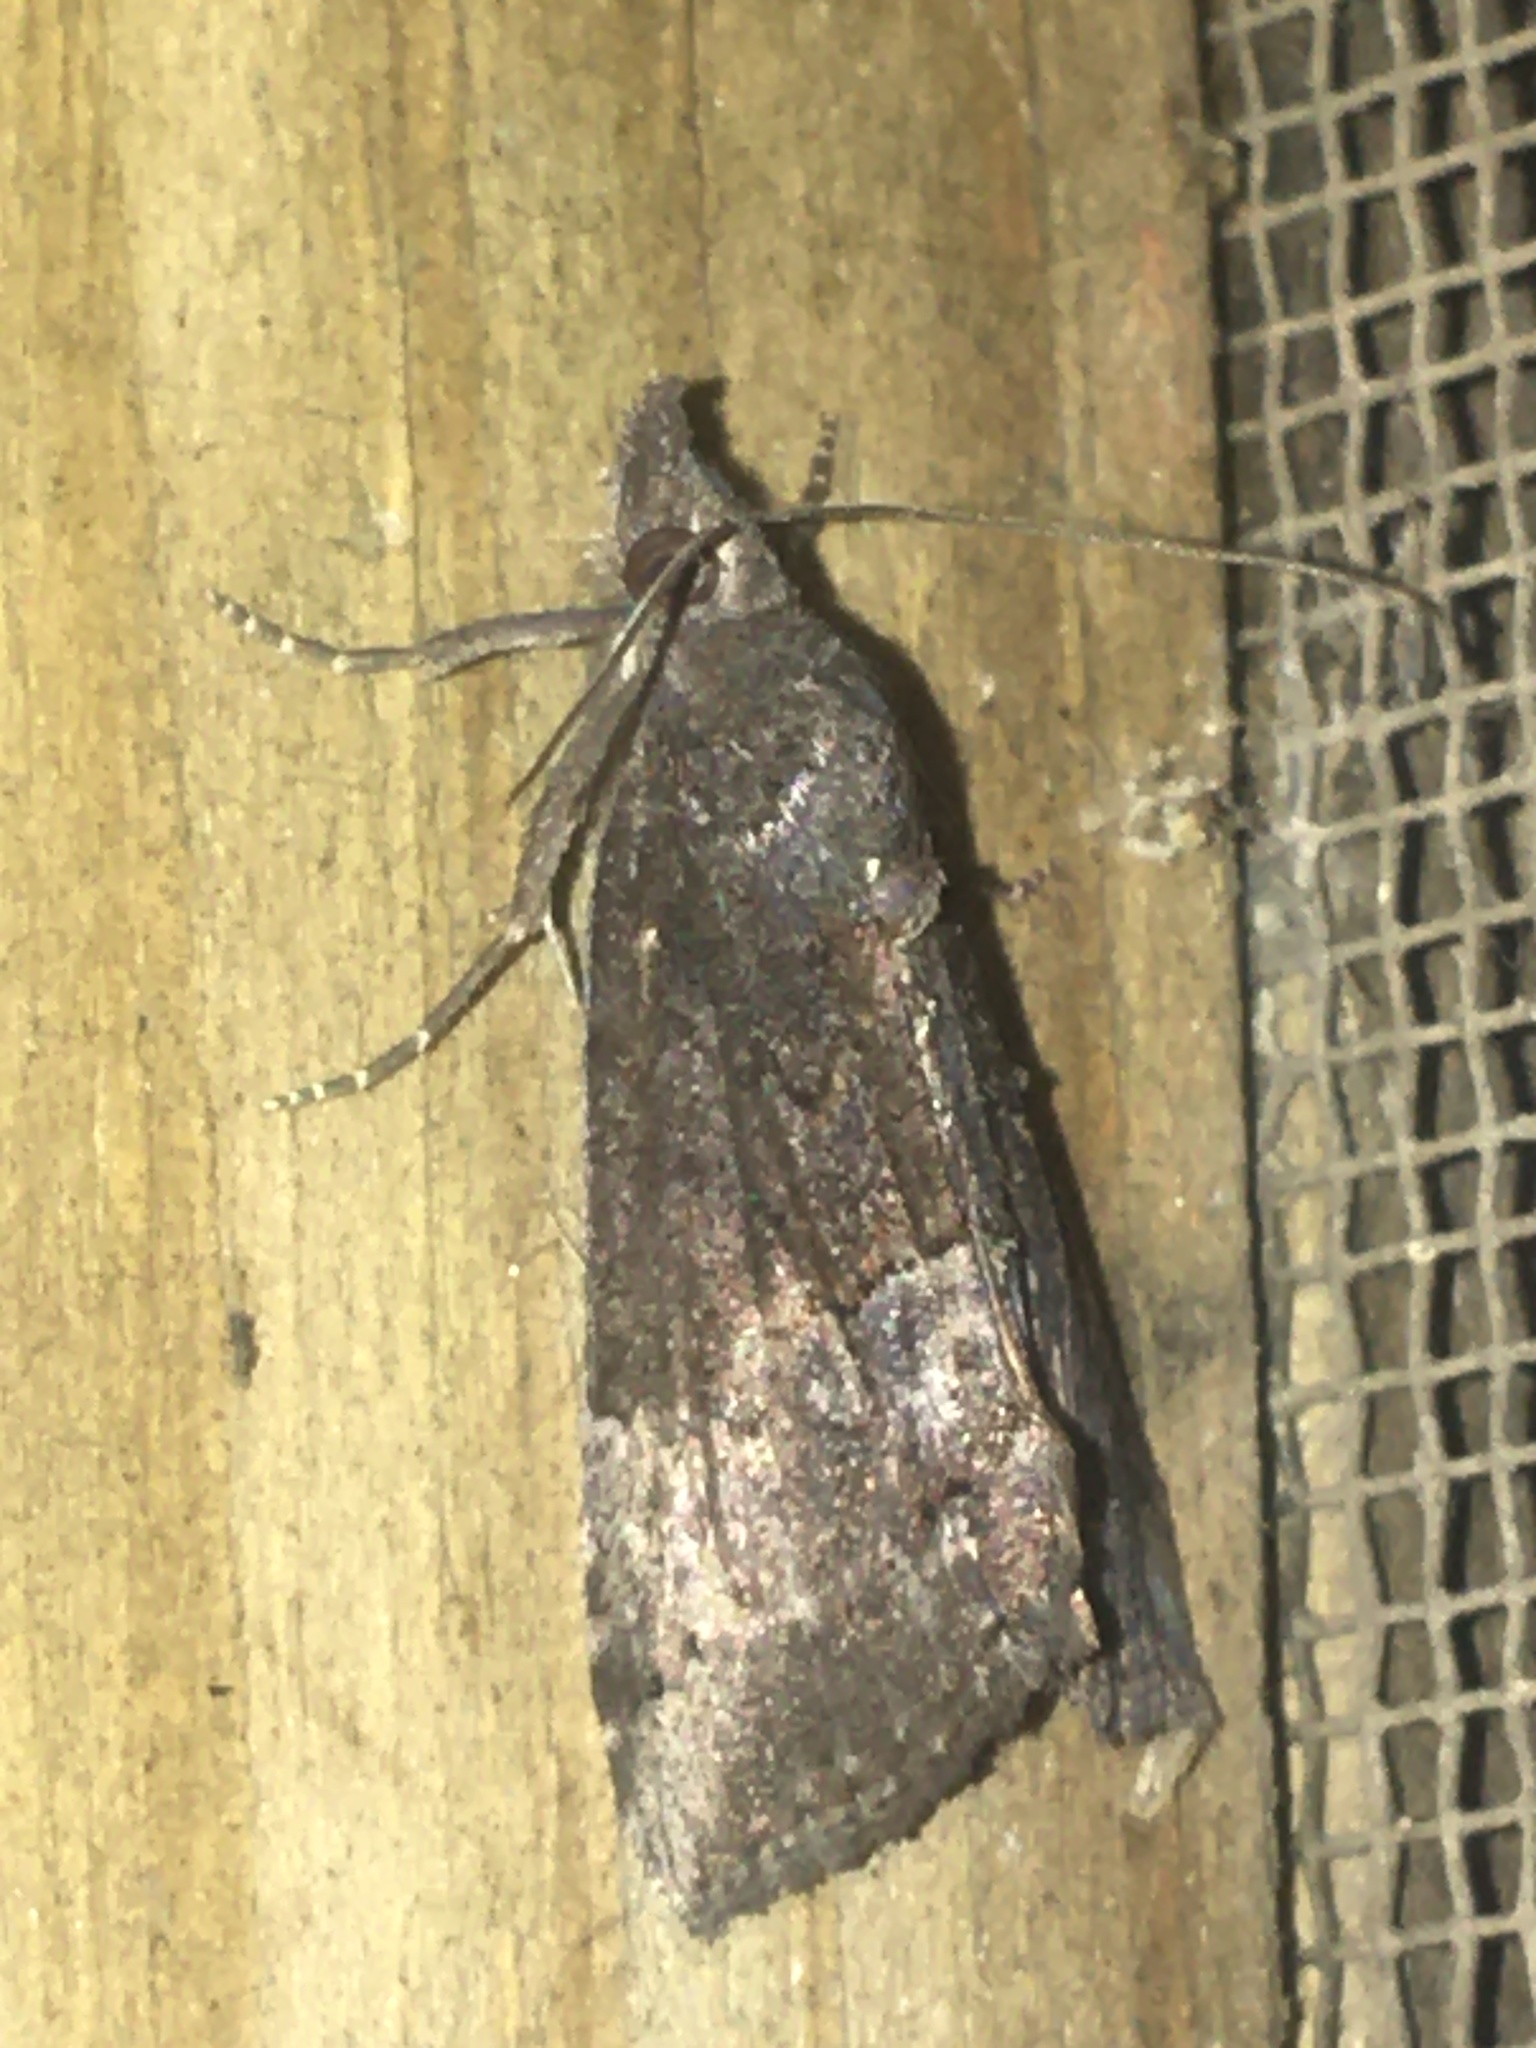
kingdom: Animalia
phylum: Arthropoda
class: Insecta
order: Lepidoptera
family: Erebidae
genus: Hypena
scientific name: Hypena scabra
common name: Green cloverworm
